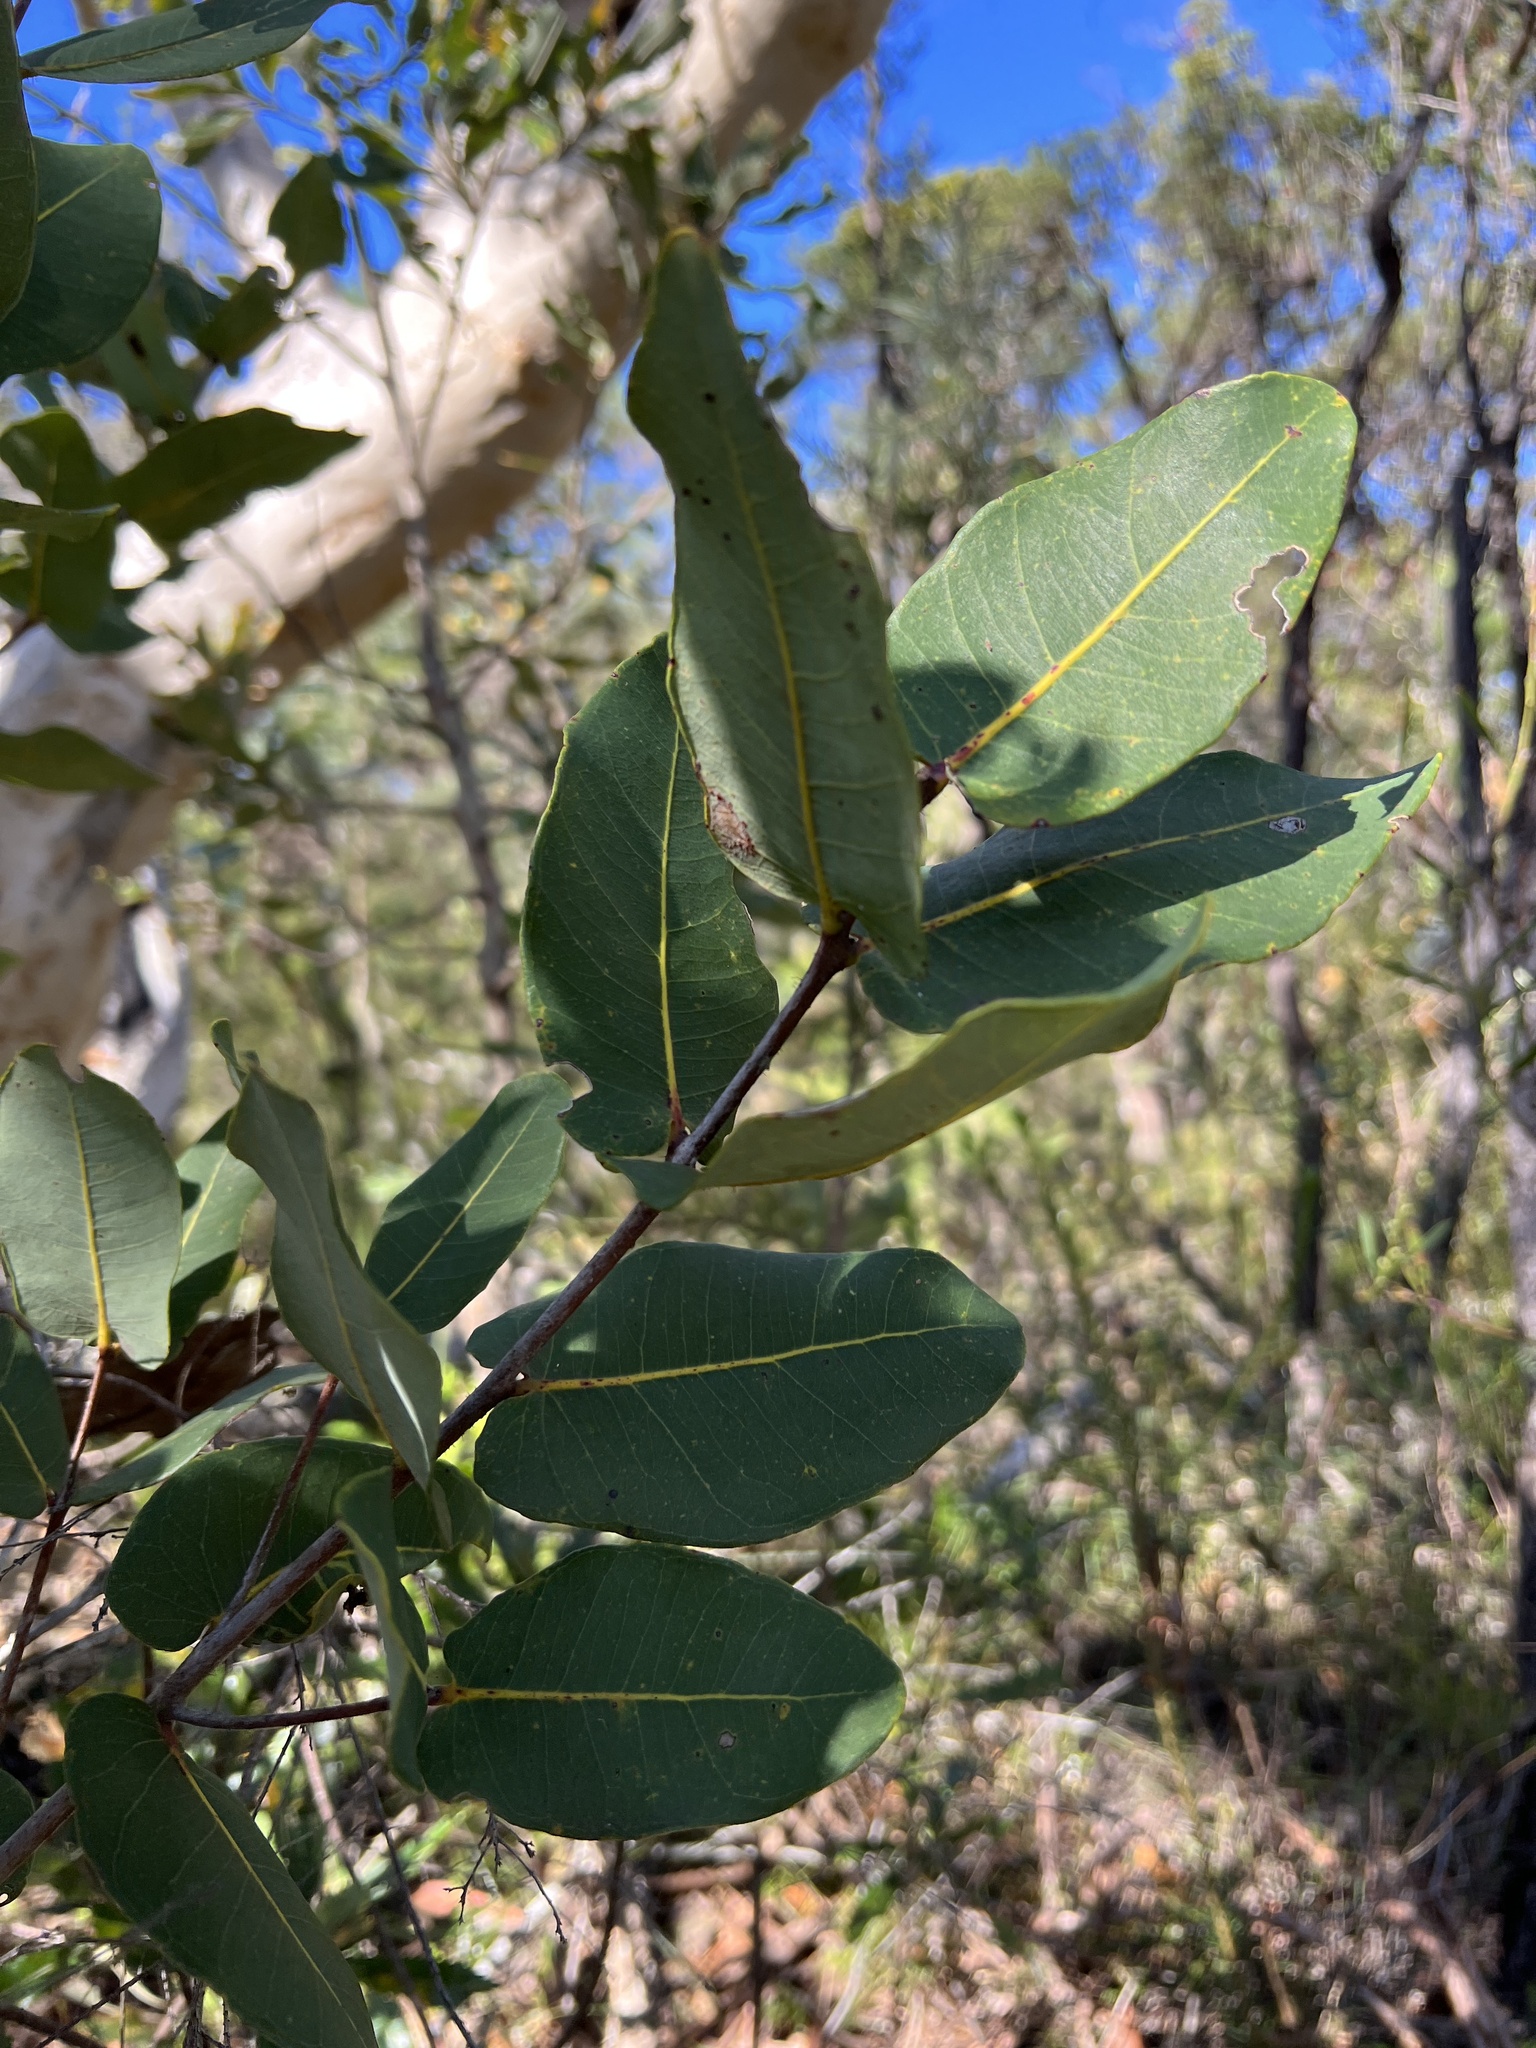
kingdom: Plantae
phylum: Tracheophyta
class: Magnoliopsida
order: Myrtales
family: Myrtaceae
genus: Angophora
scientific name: Angophora hispida
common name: Dwarf-apple
